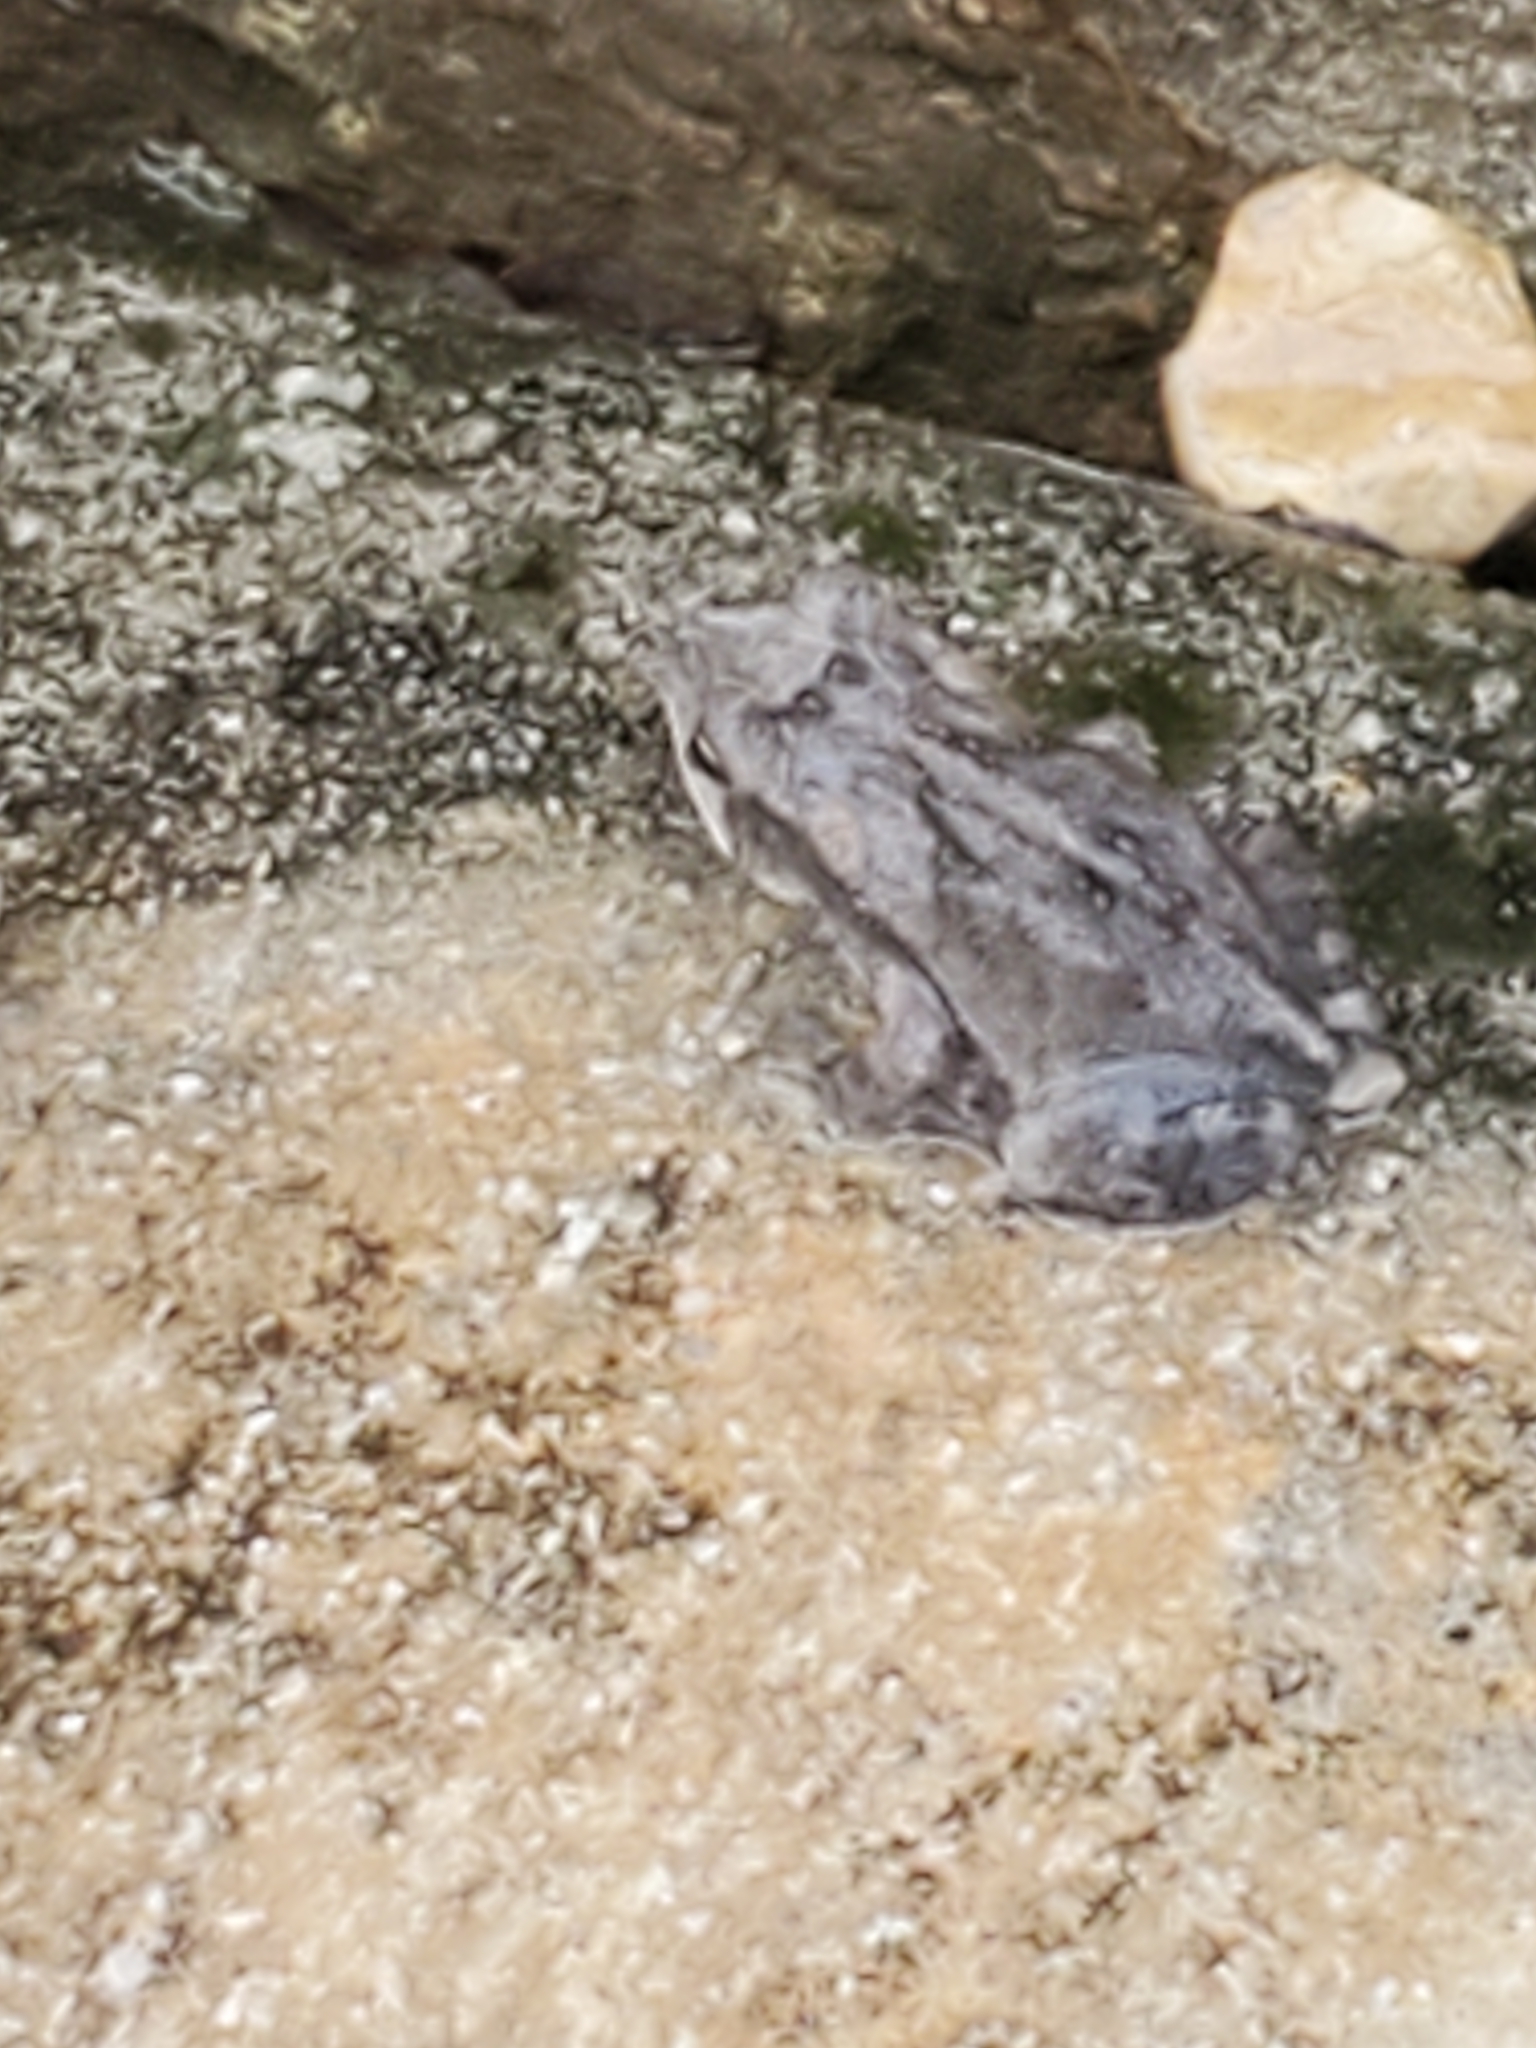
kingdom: Animalia
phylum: Chordata
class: Amphibia
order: Anura
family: Bufonidae
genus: Incilius
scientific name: Incilius nebulifer
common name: Gulf coast toad
